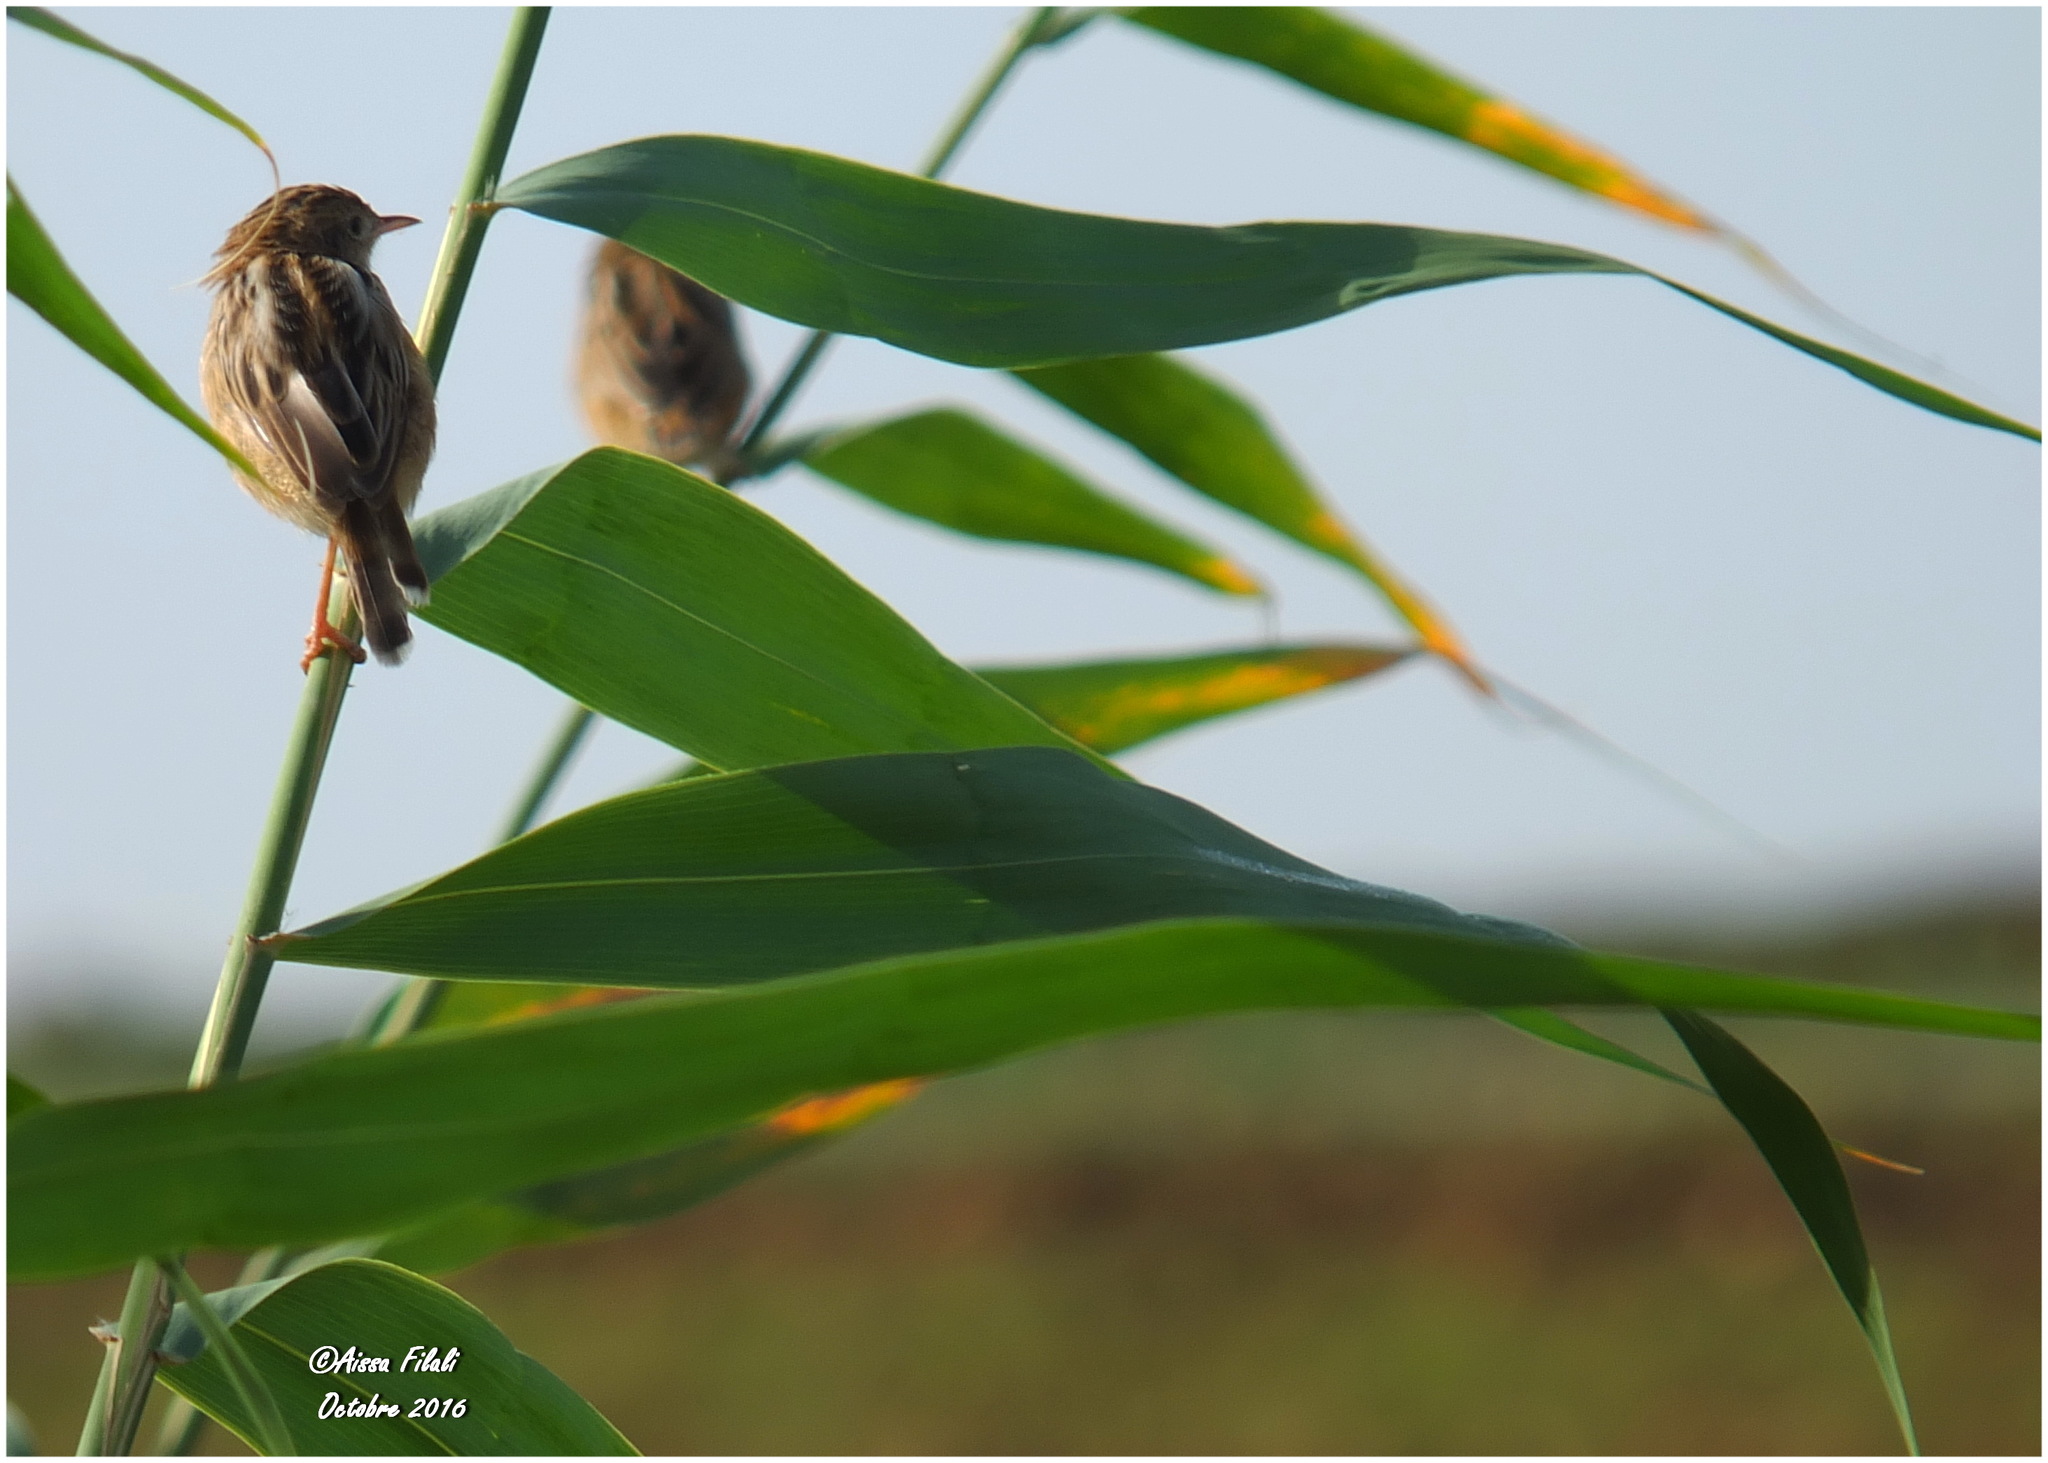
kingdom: Animalia
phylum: Chordata
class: Aves
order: Passeriformes
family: Cisticolidae
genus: Cisticola
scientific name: Cisticola juncidis
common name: Zitting cisticola
